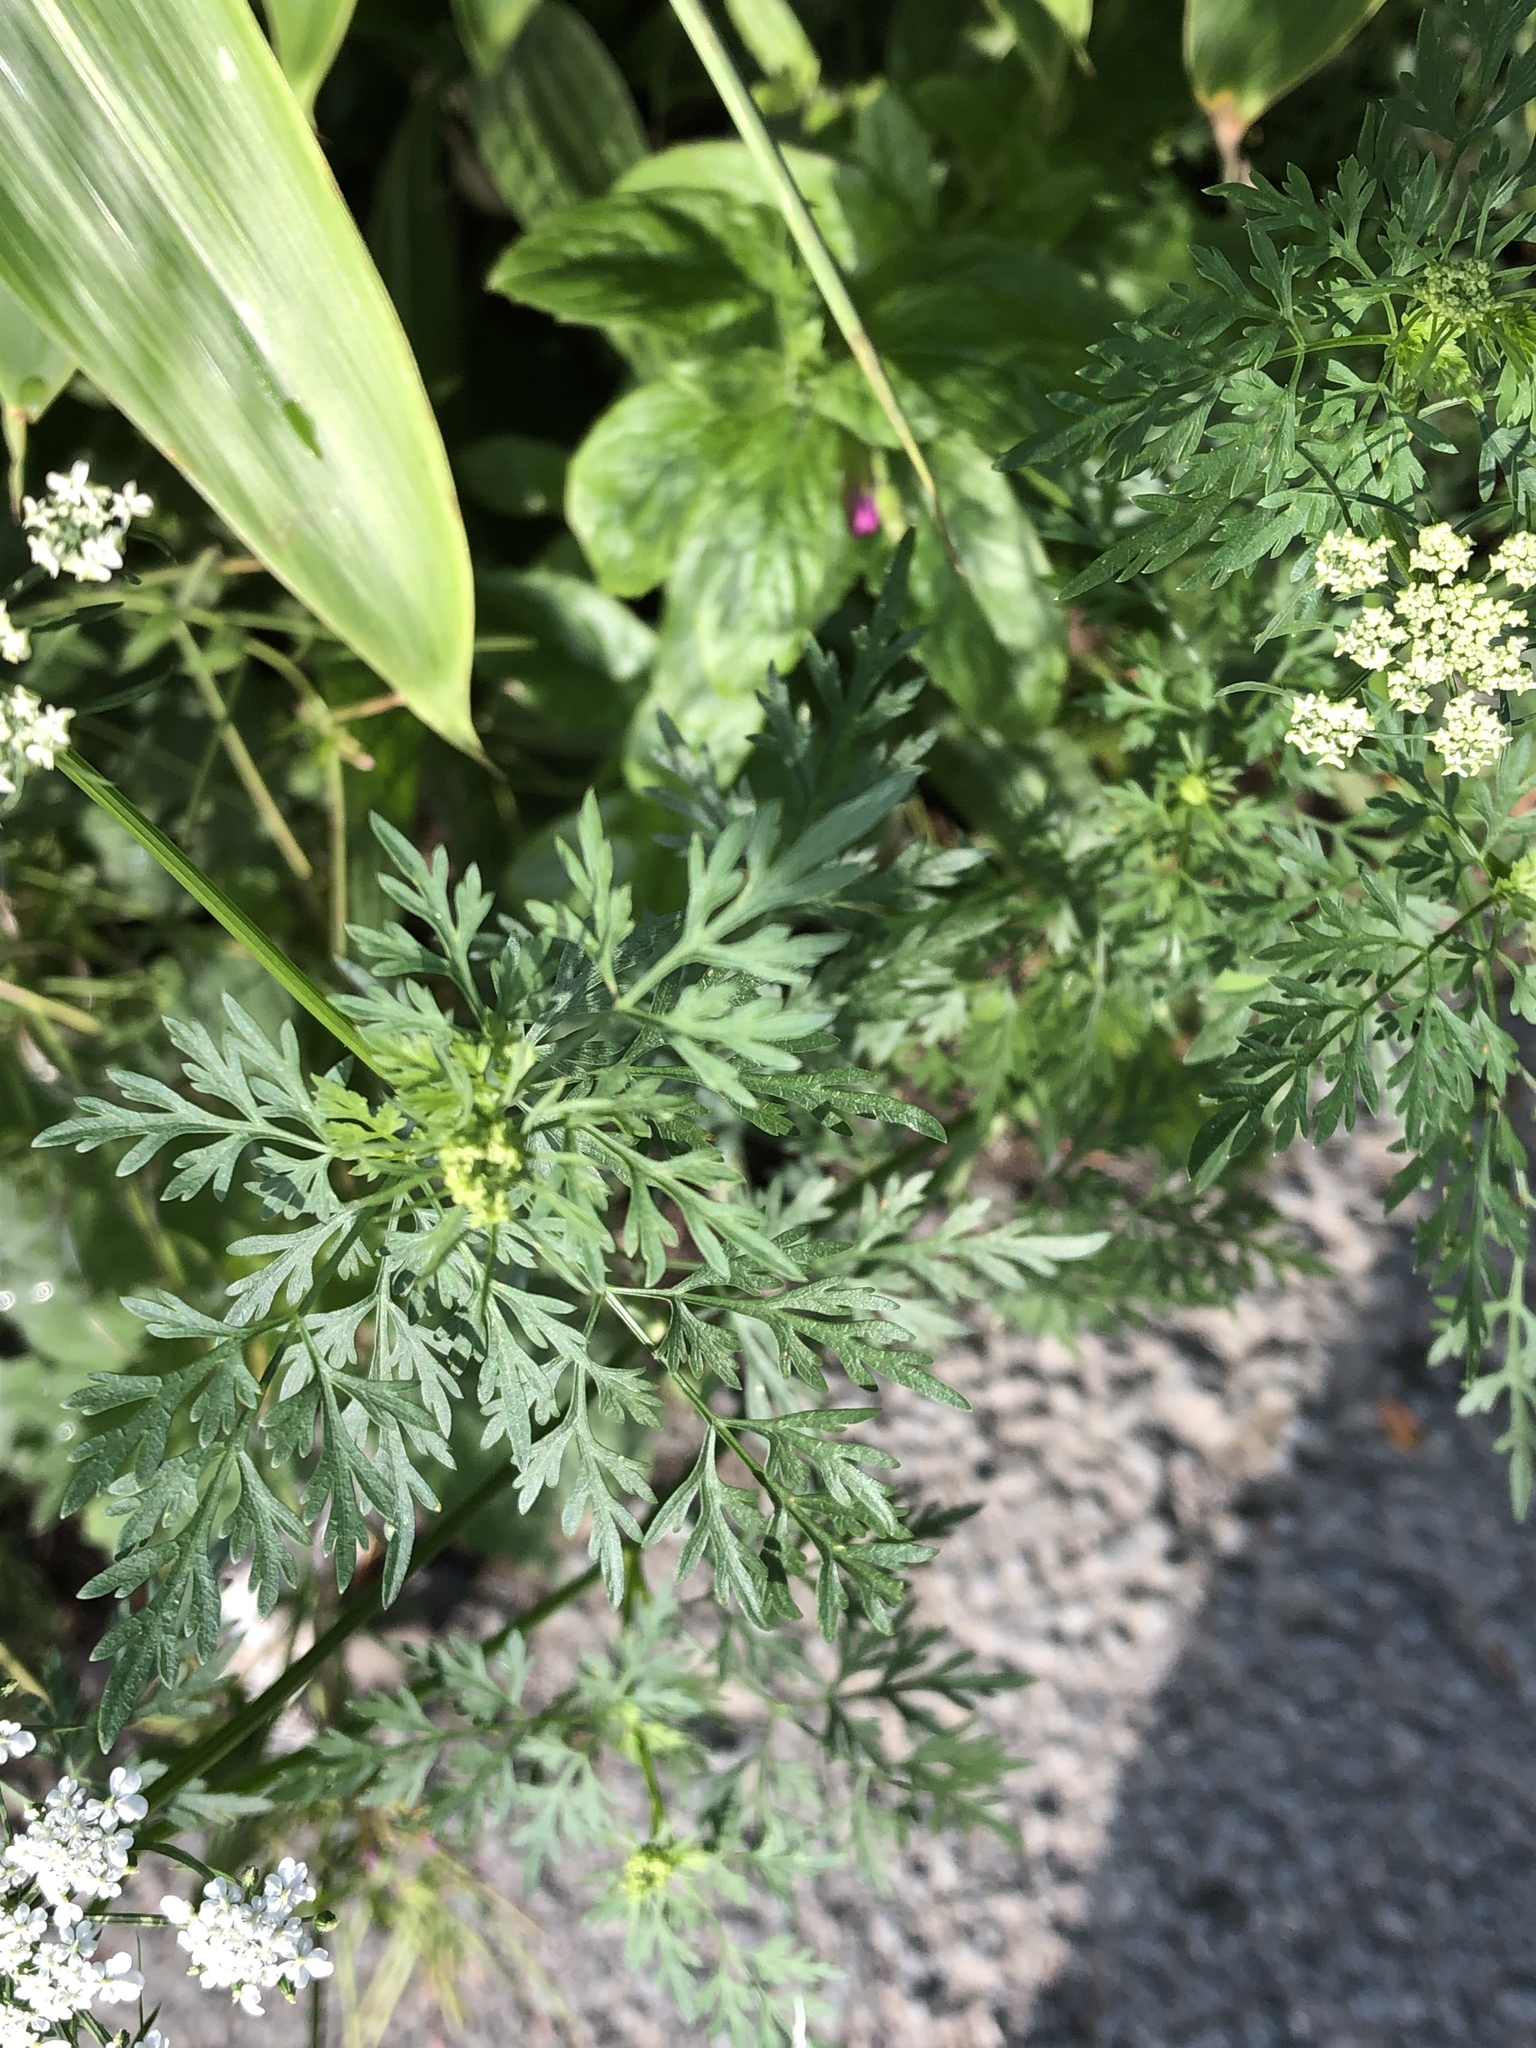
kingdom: Plantae
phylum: Tracheophyta
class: Magnoliopsida
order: Apiales
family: Apiaceae
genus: Aethusa
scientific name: Aethusa cynapium
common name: Fool's parsley
